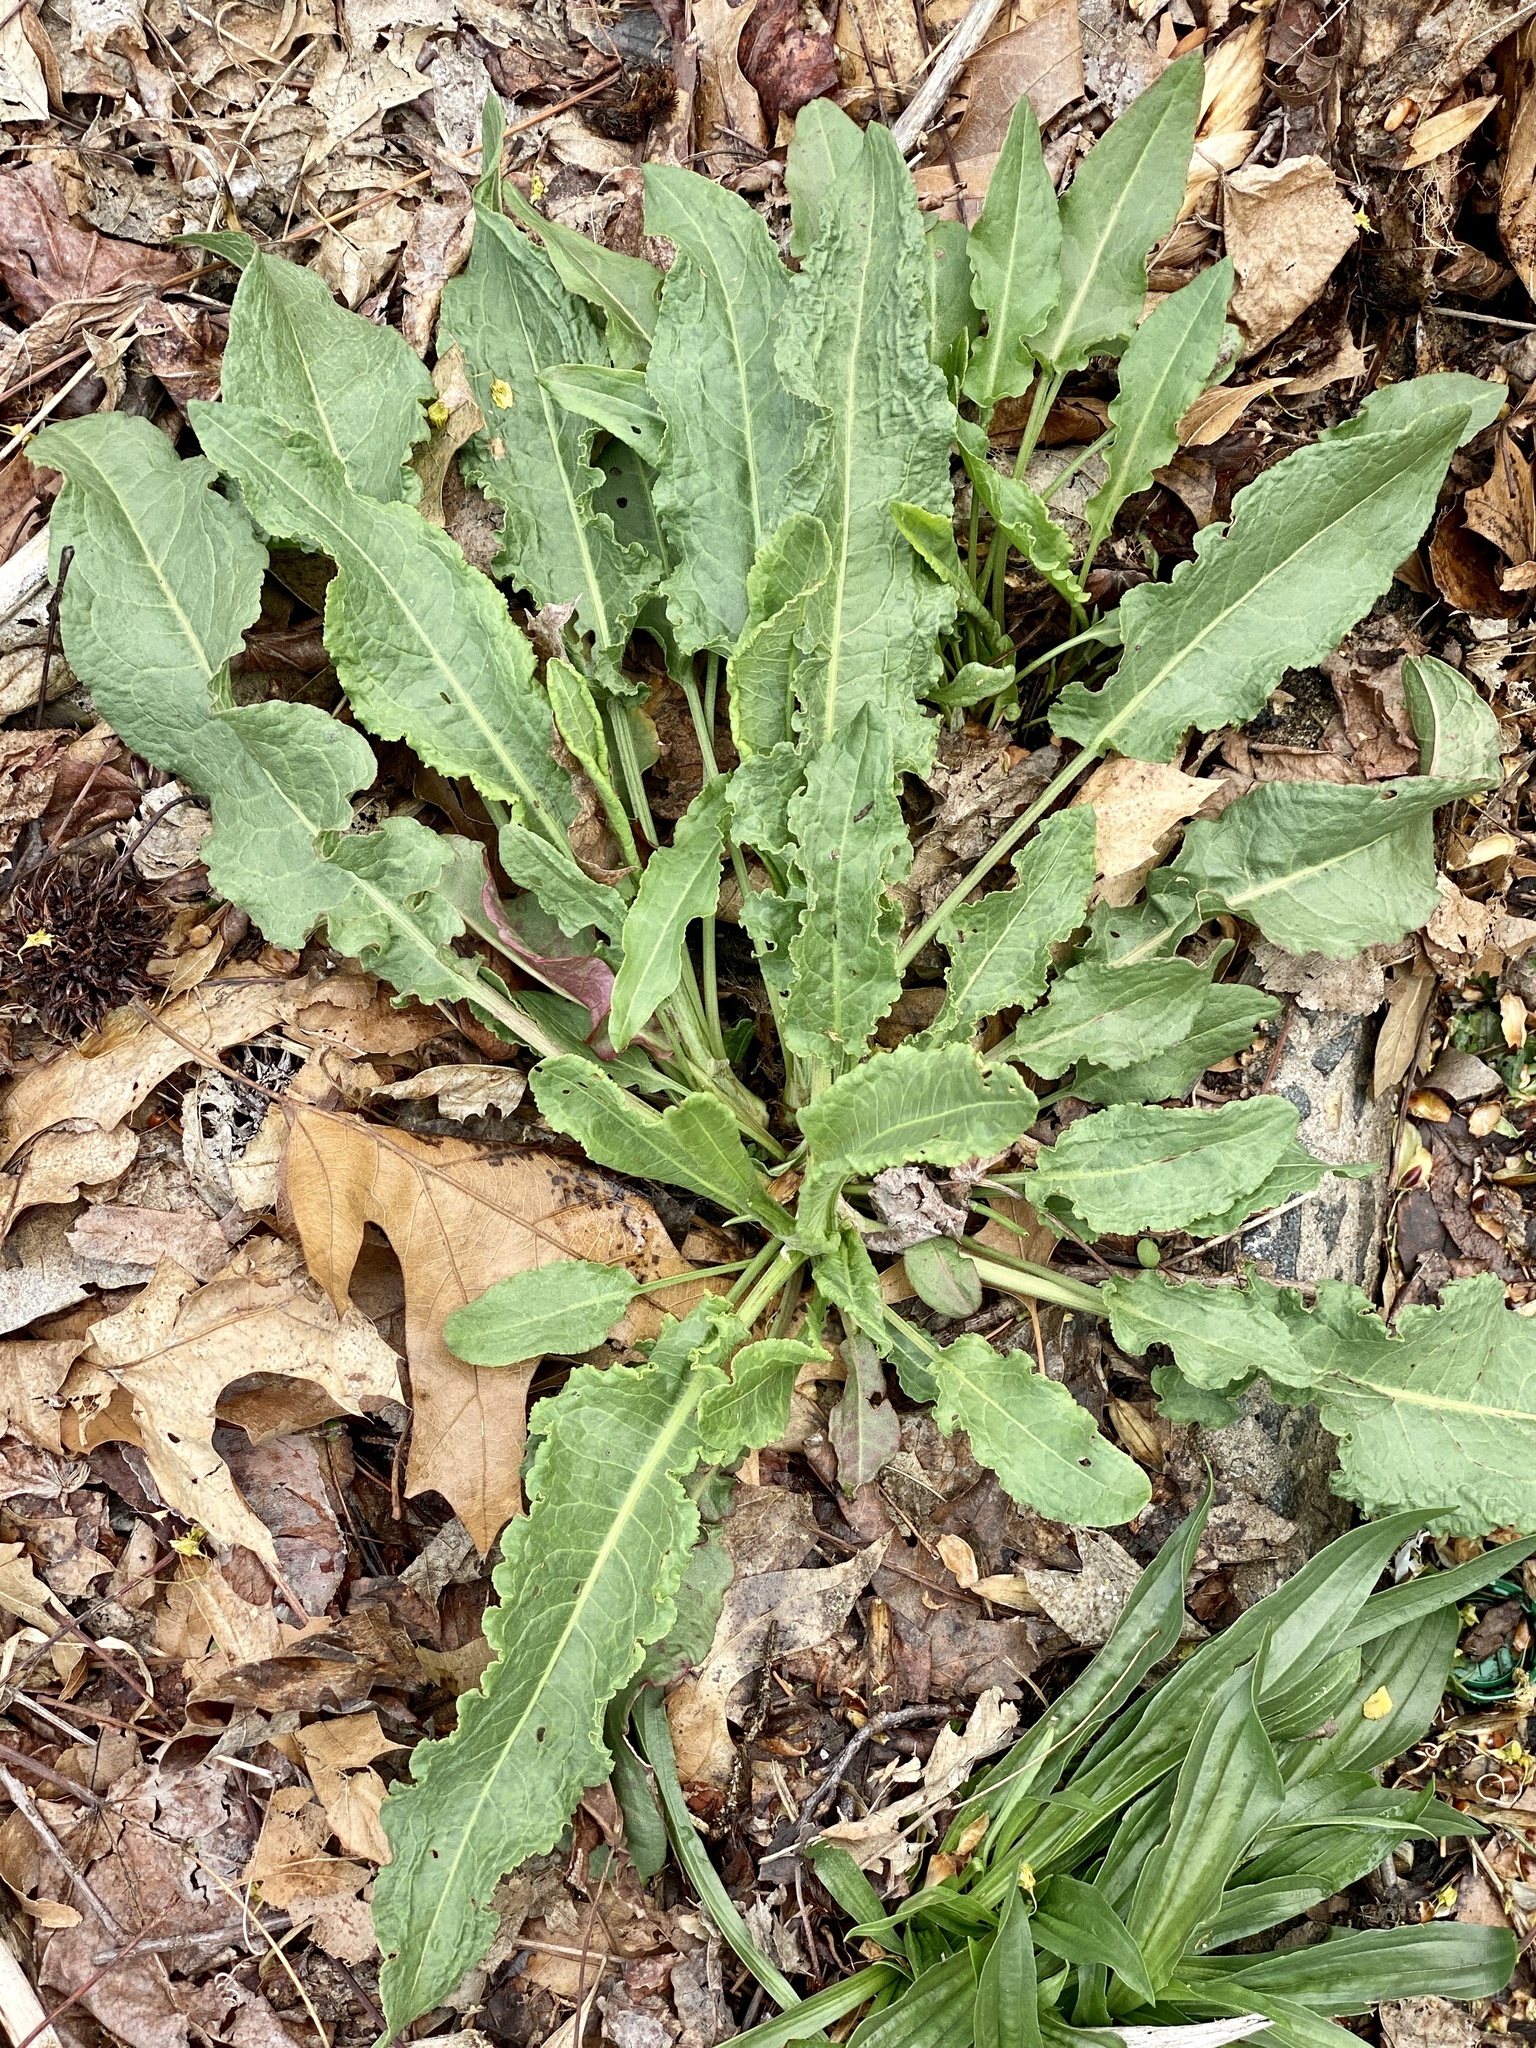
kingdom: Plantae
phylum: Tracheophyta
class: Magnoliopsida
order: Caryophyllales
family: Polygonaceae
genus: Rumex
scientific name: Rumex crispus
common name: Curled dock
